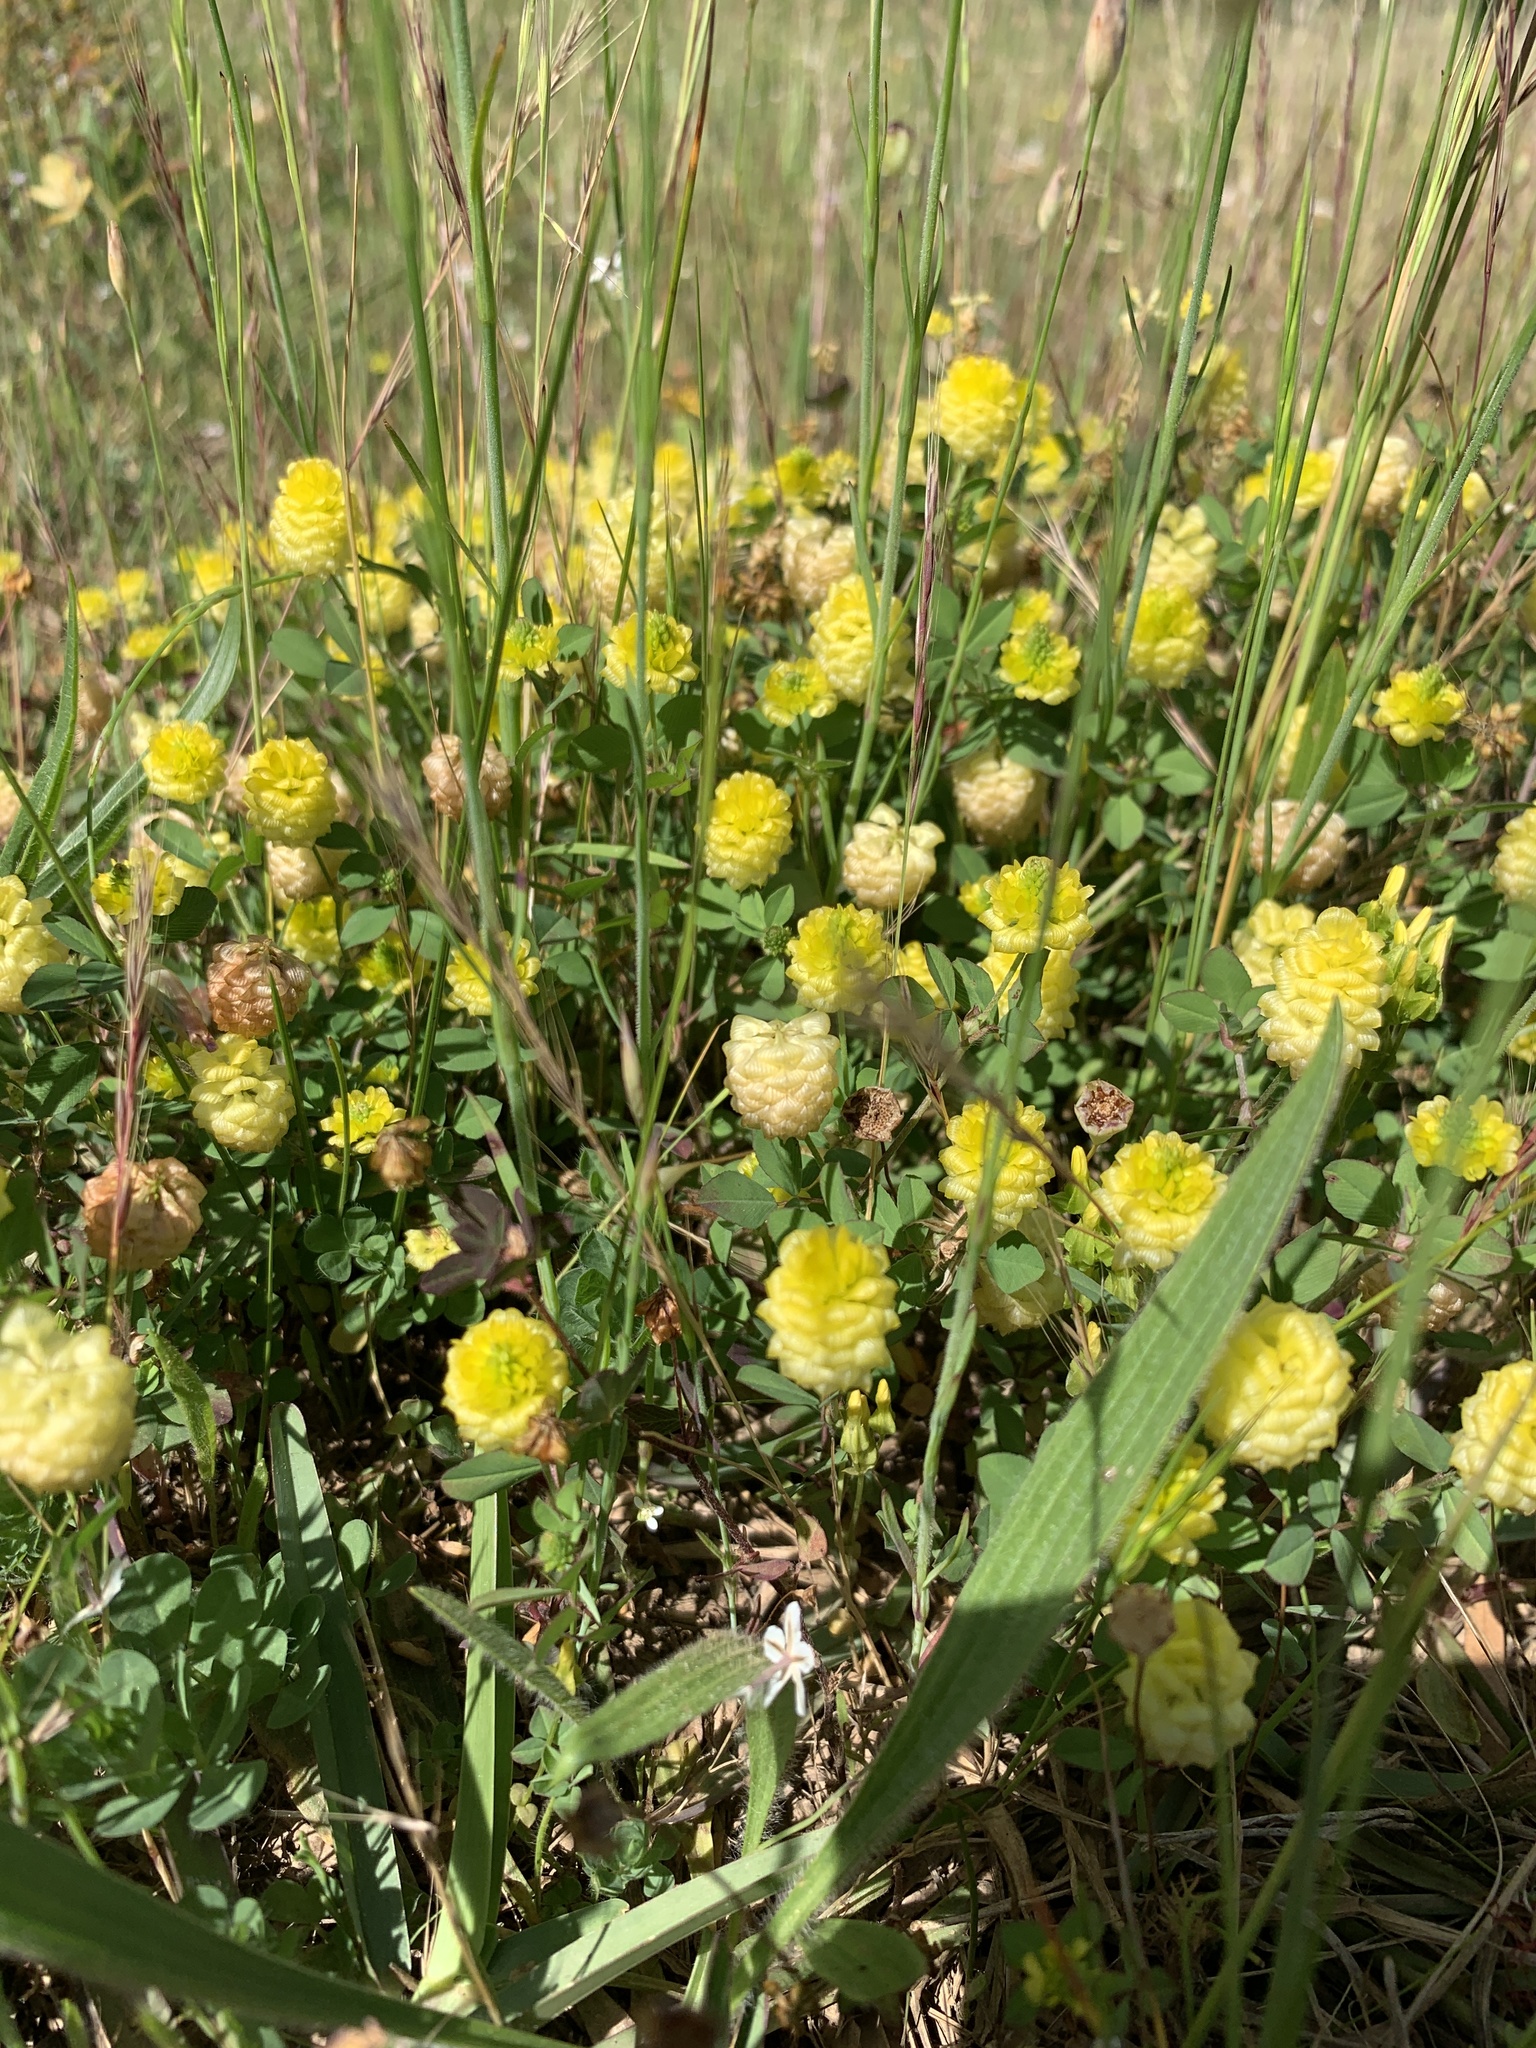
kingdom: Plantae
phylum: Tracheophyta
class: Magnoliopsida
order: Fabales
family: Fabaceae
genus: Trifolium
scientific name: Trifolium campestre
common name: Field clover
